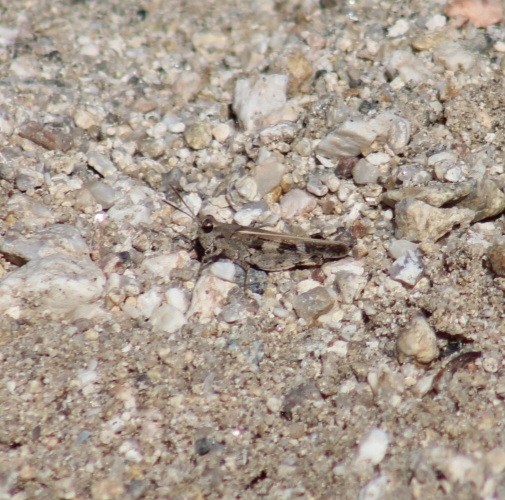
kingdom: Animalia
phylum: Arthropoda
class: Insecta
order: Orthoptera
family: Acrididae
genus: Nebulatettix
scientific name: Nebulatettix subgracilis
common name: Southwestern dusky grasshopper
